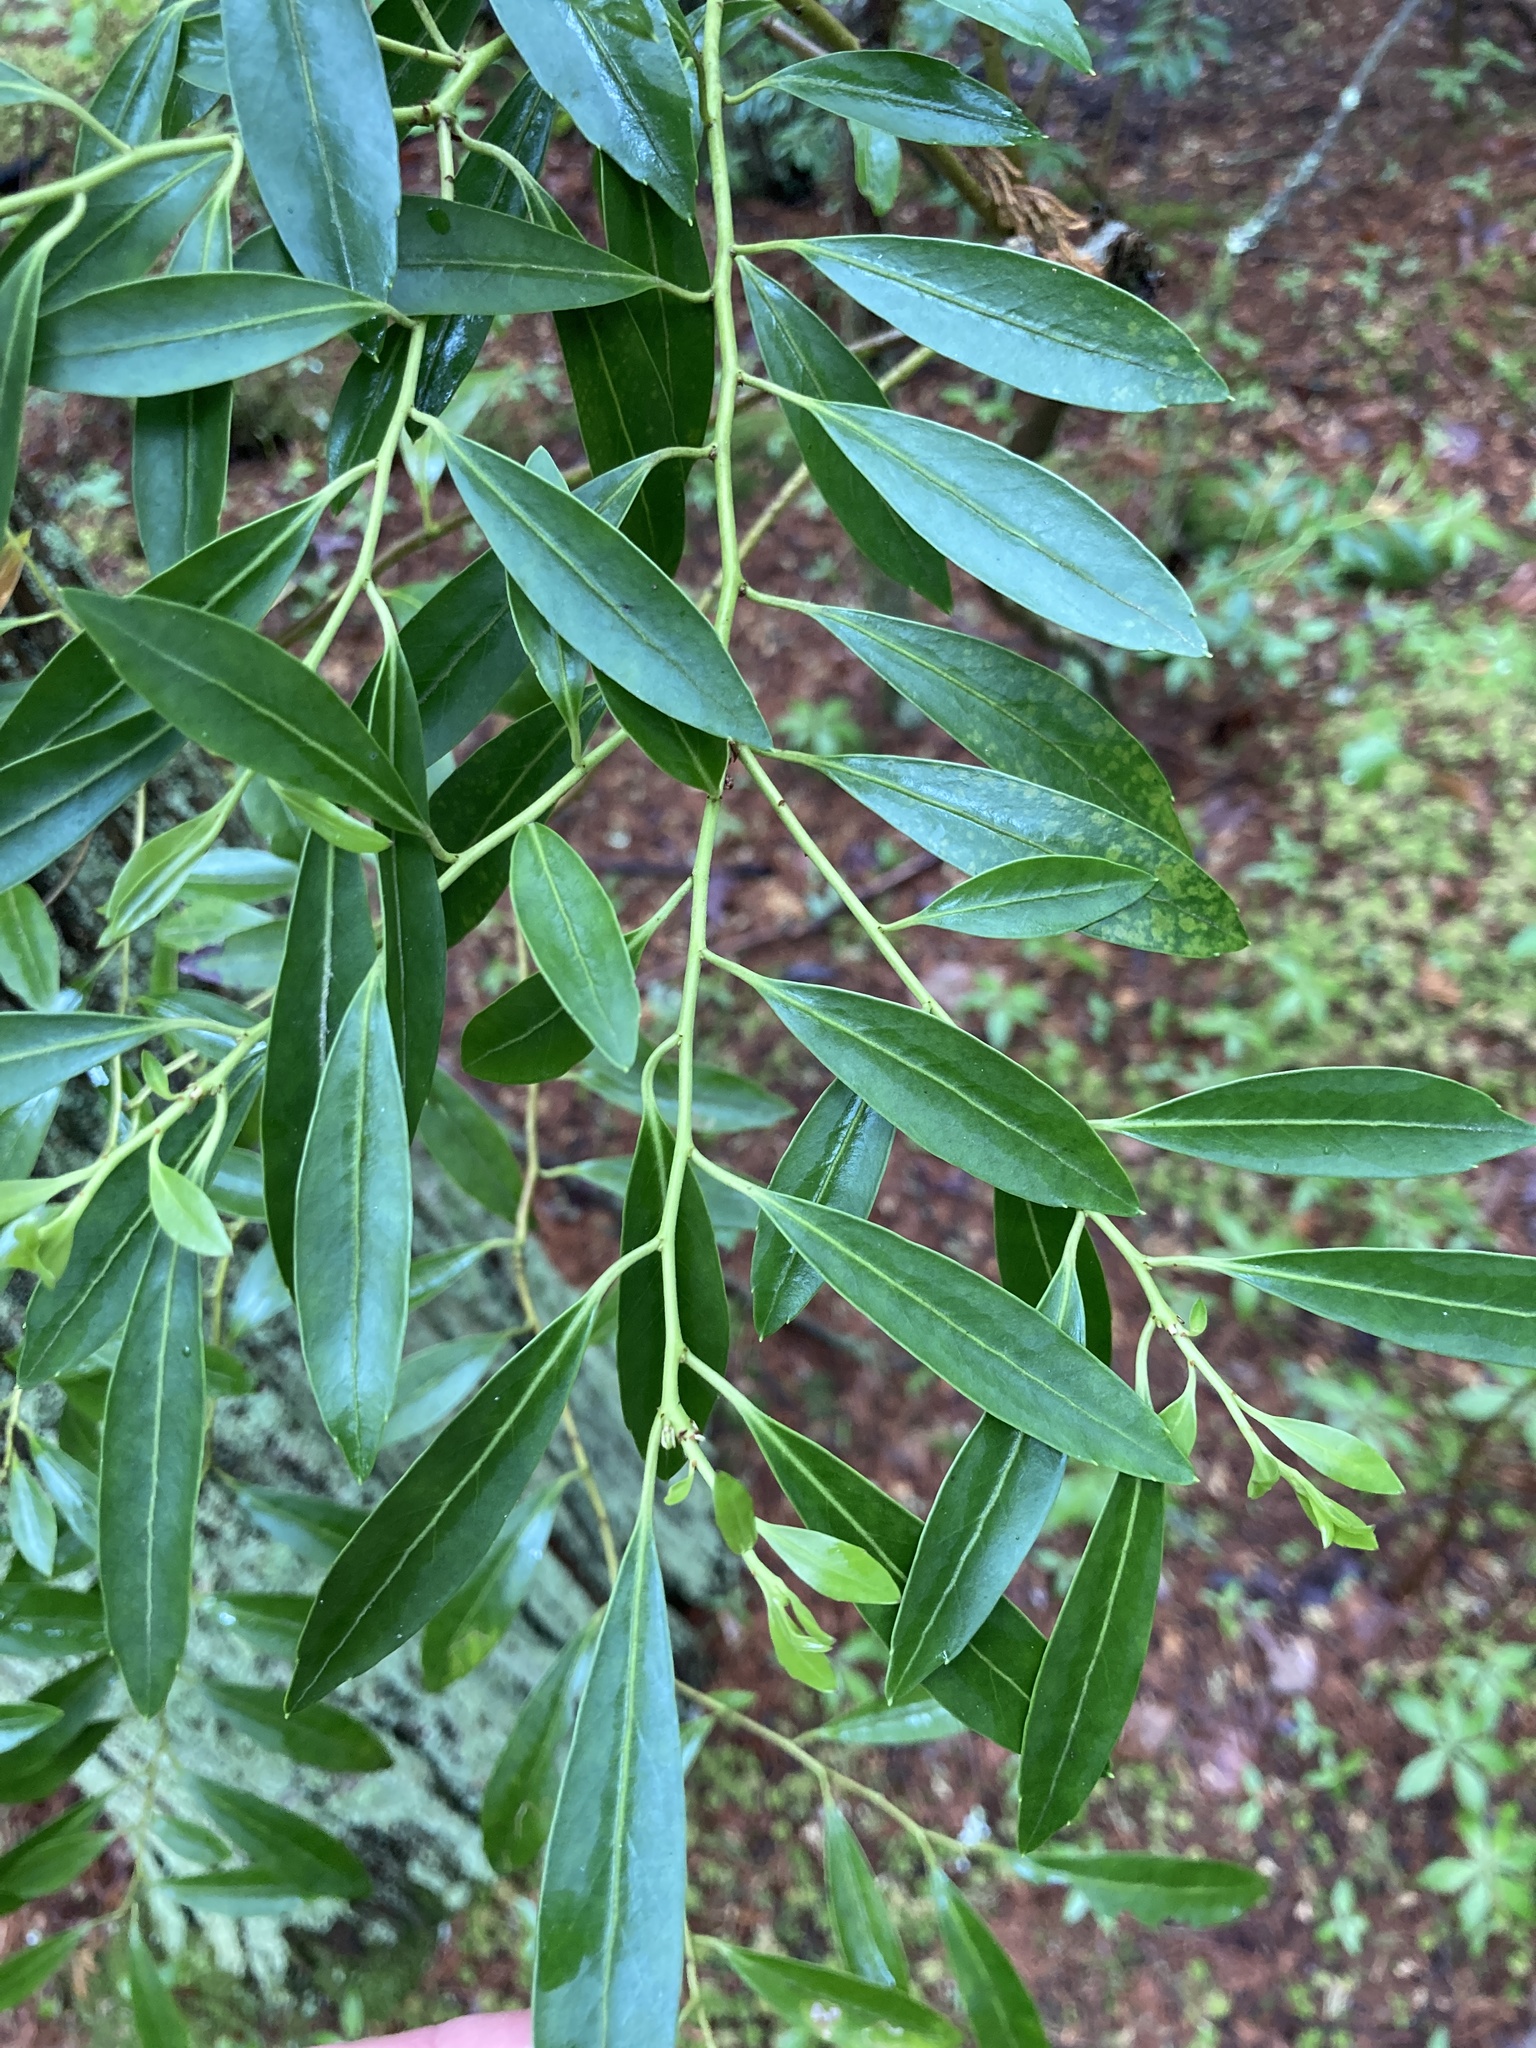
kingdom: Plantae
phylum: Tracheophyta
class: Magnoliopsida
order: Aquifoliales
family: Aquifoliaceae
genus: Ilex
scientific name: Ilex glabra
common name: Bitter gallberry
